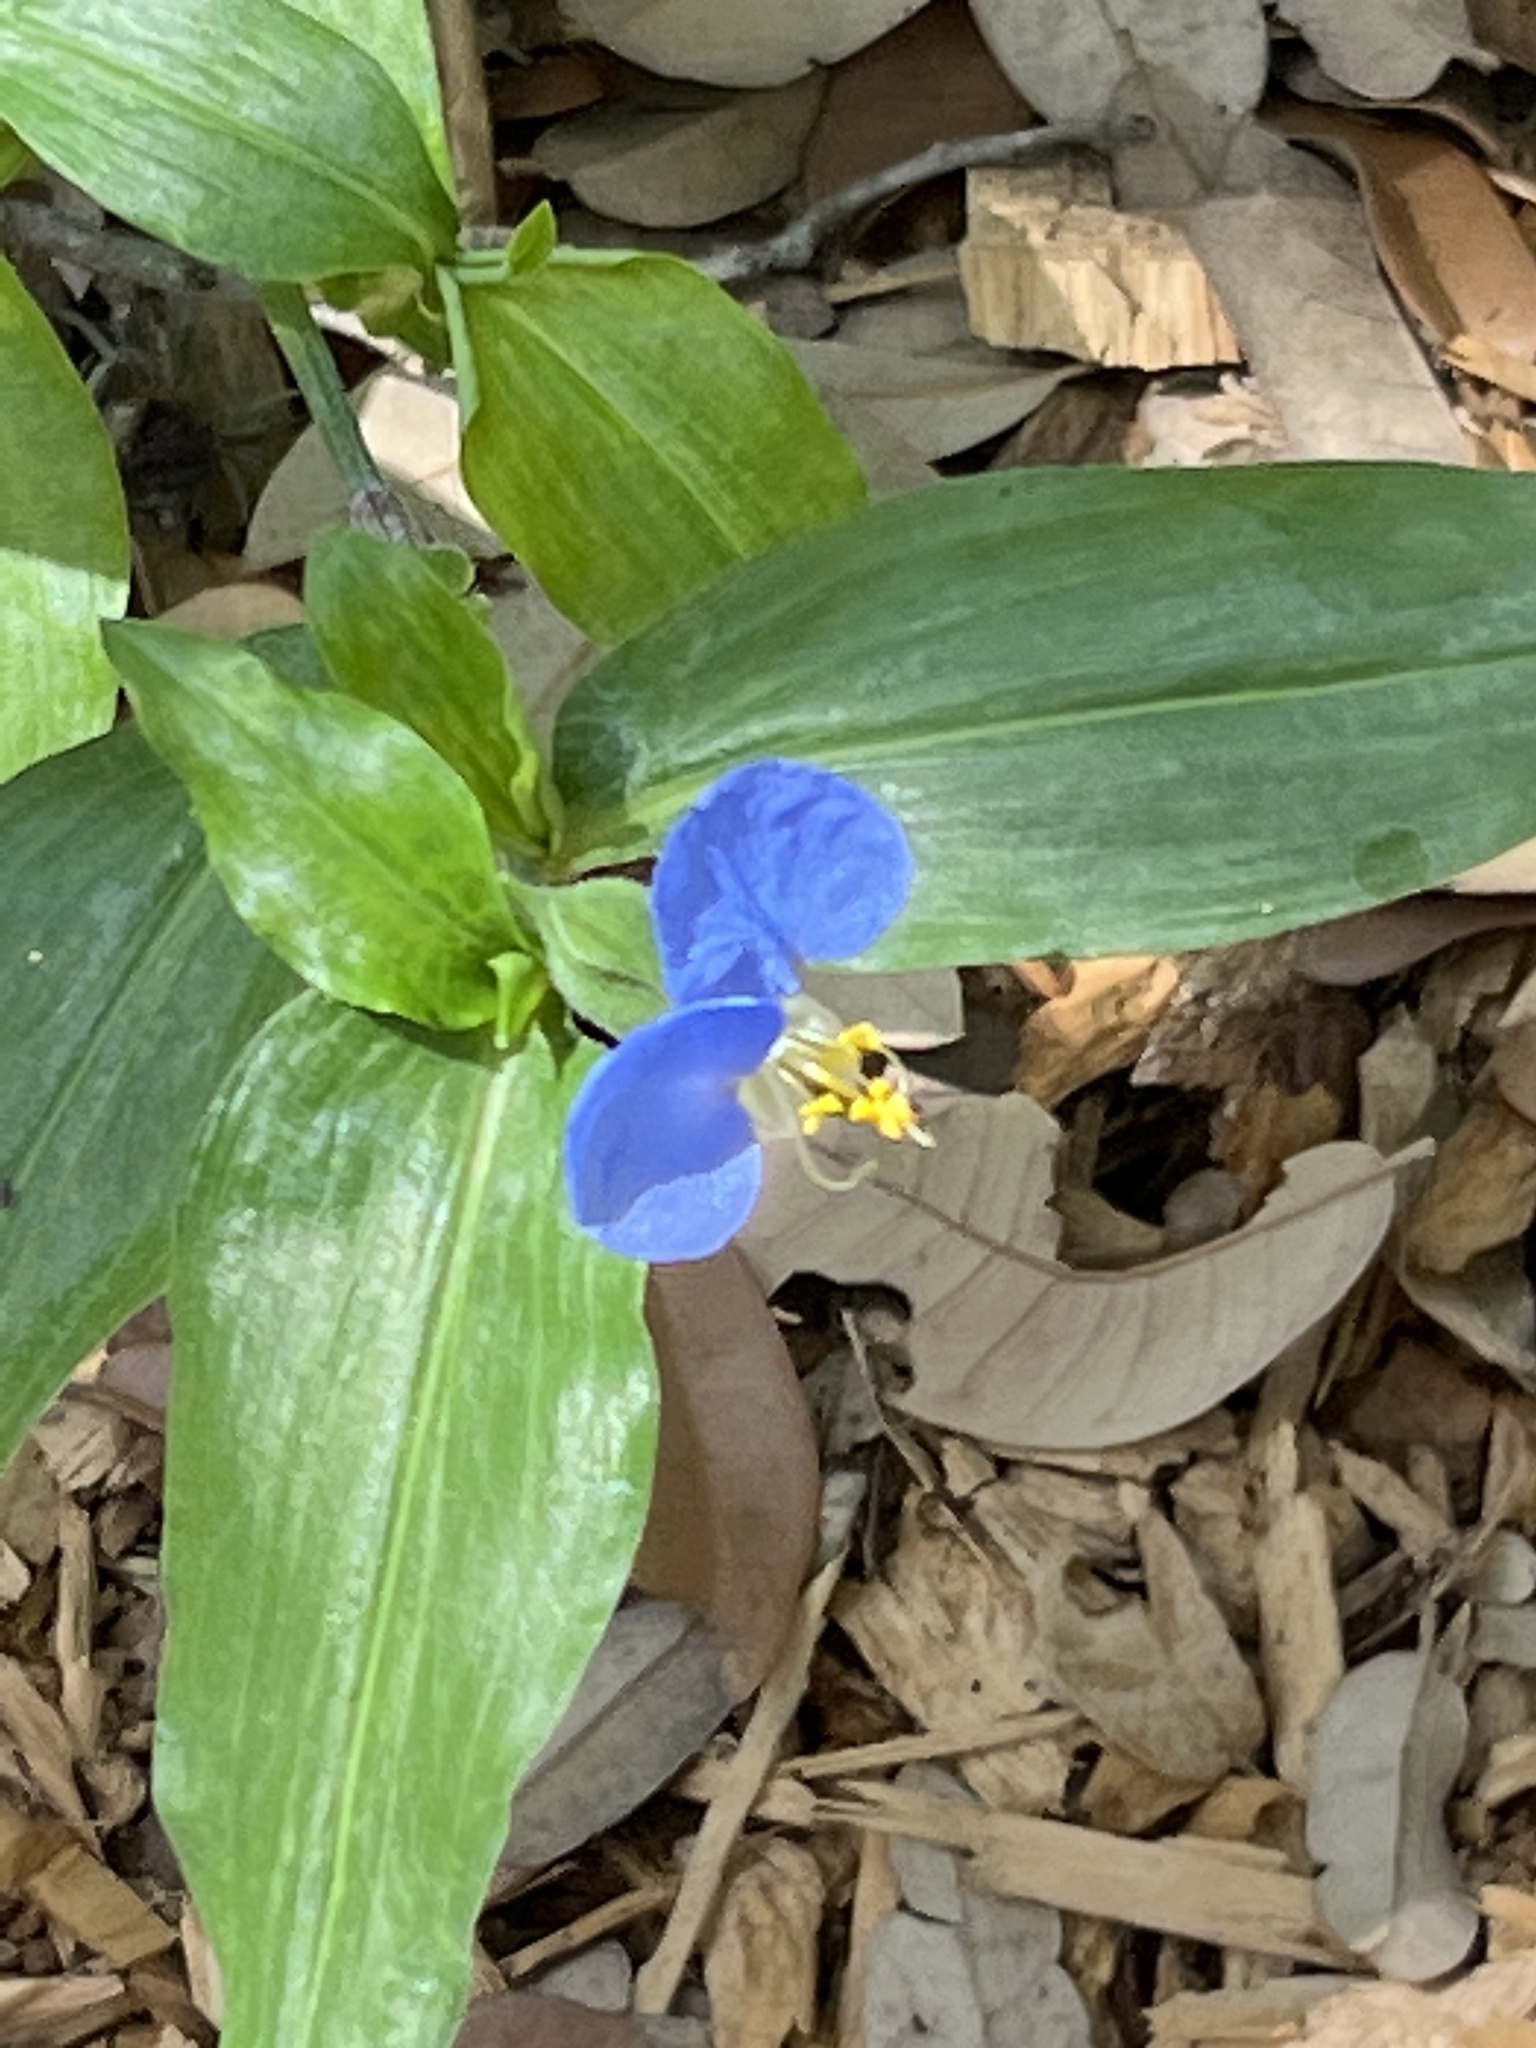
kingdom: Plantae
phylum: Tracheophyta
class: Liliopsida
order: Commelinales
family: Commelinaceae
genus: Commelina
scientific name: Commelina erecta
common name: Blousel blommetjie
